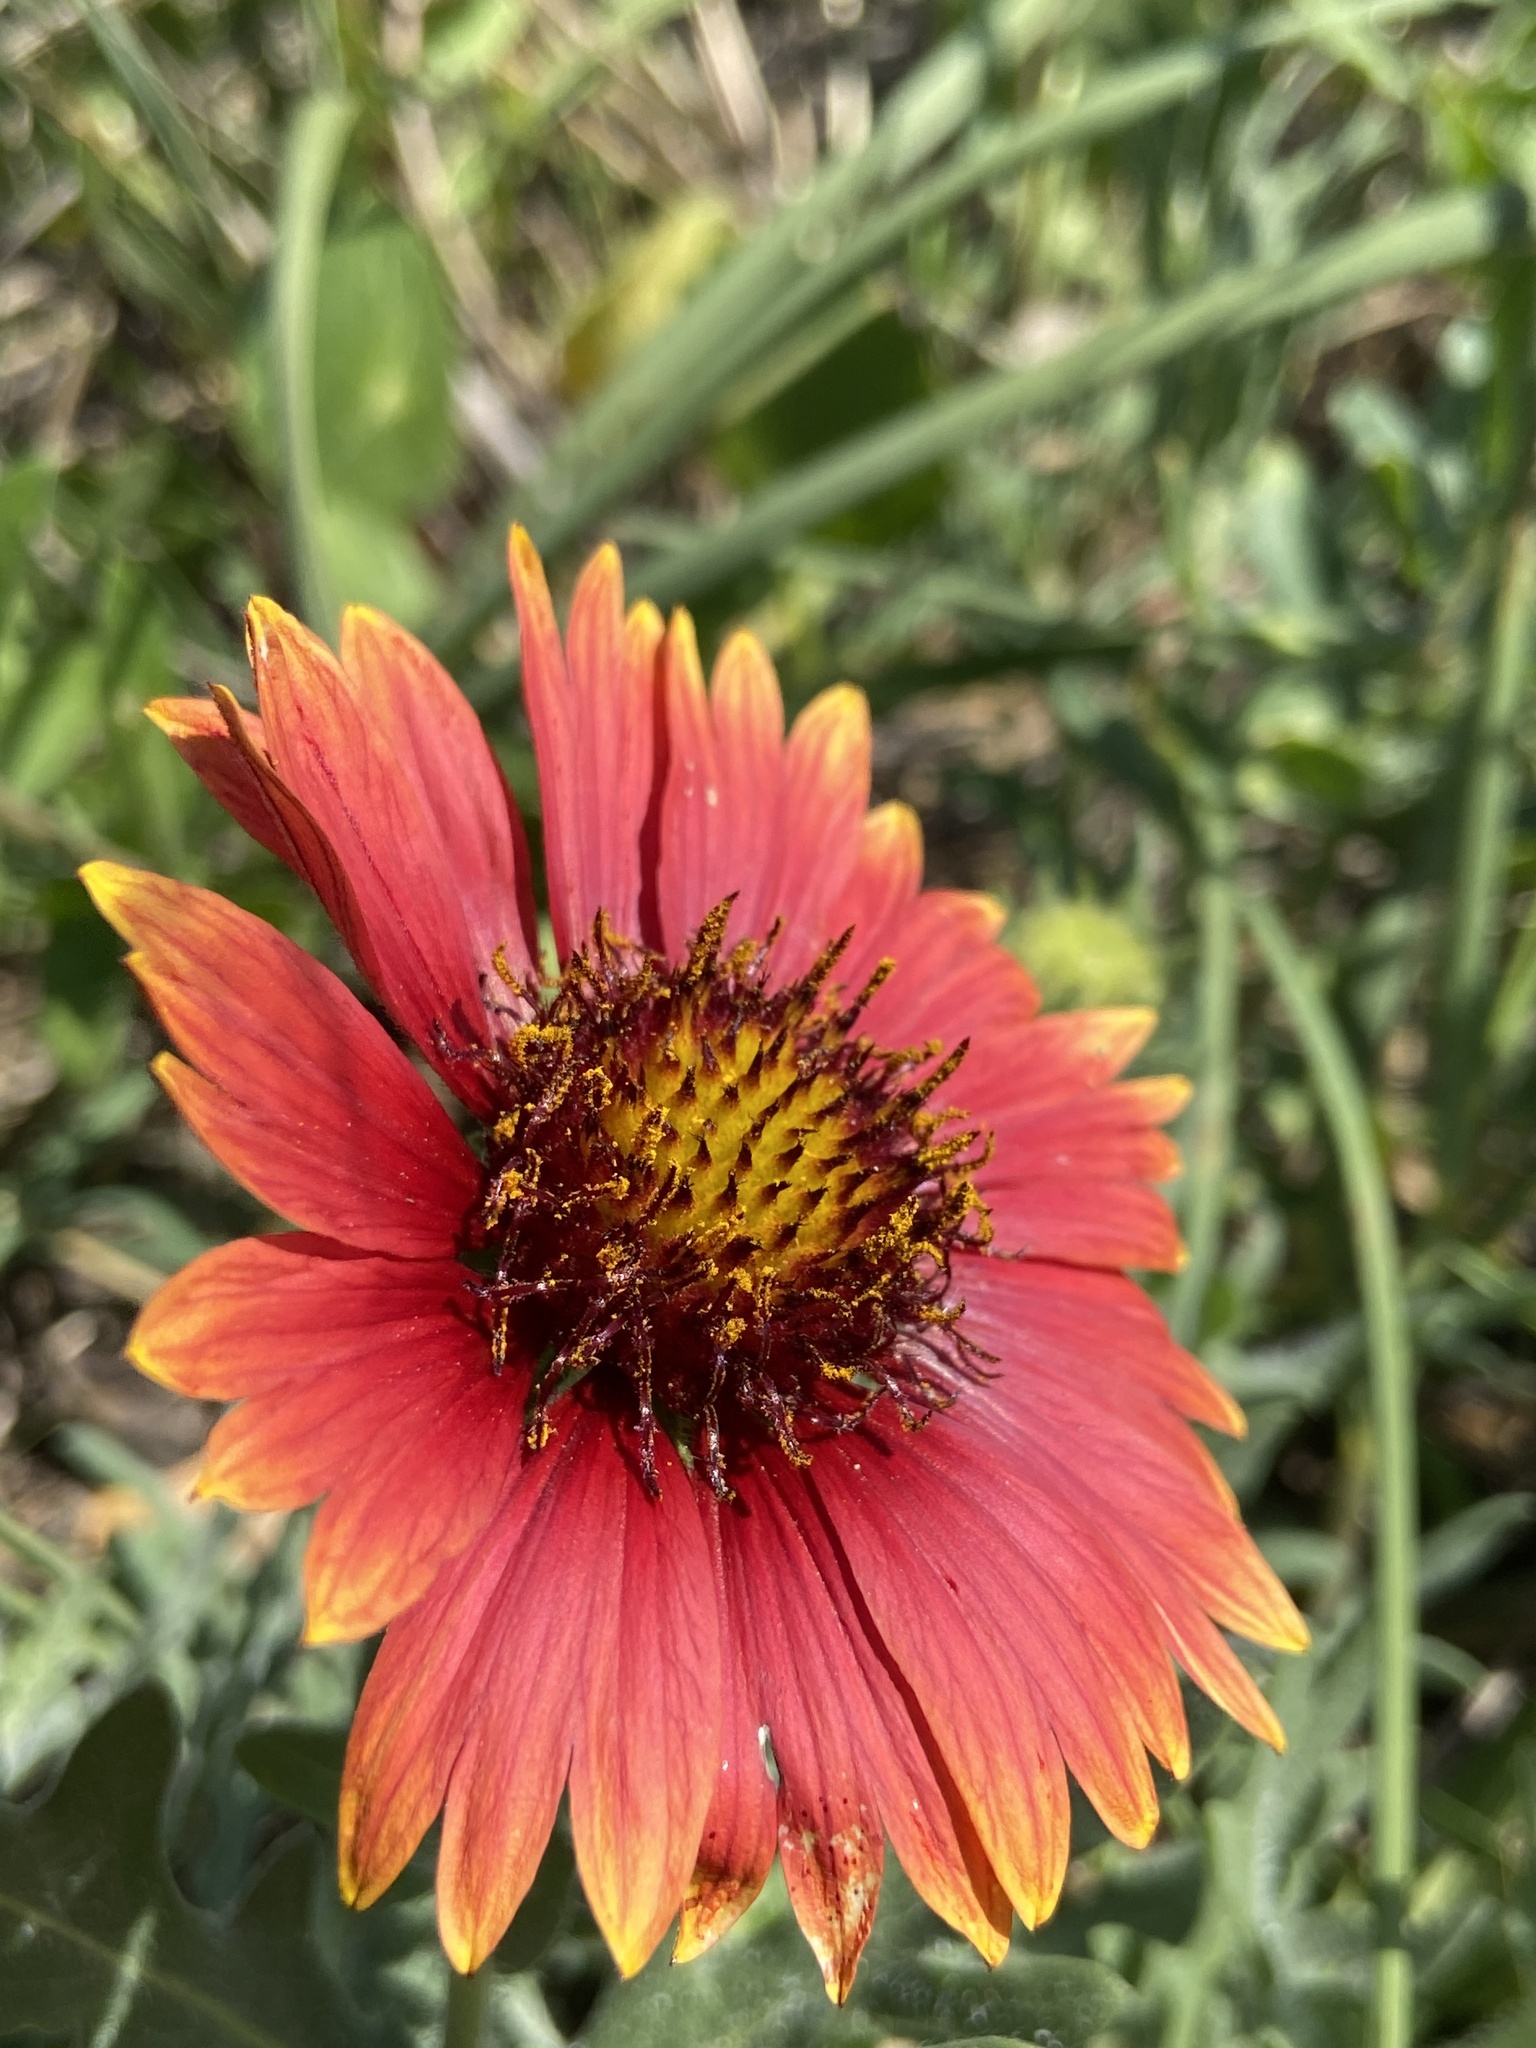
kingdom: Plantae
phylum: Tracheophyta
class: Magnoliopsida
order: Asterales
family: Asteraceae
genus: Gaillardia
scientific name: Gaillardia pulchella
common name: Firewheel
